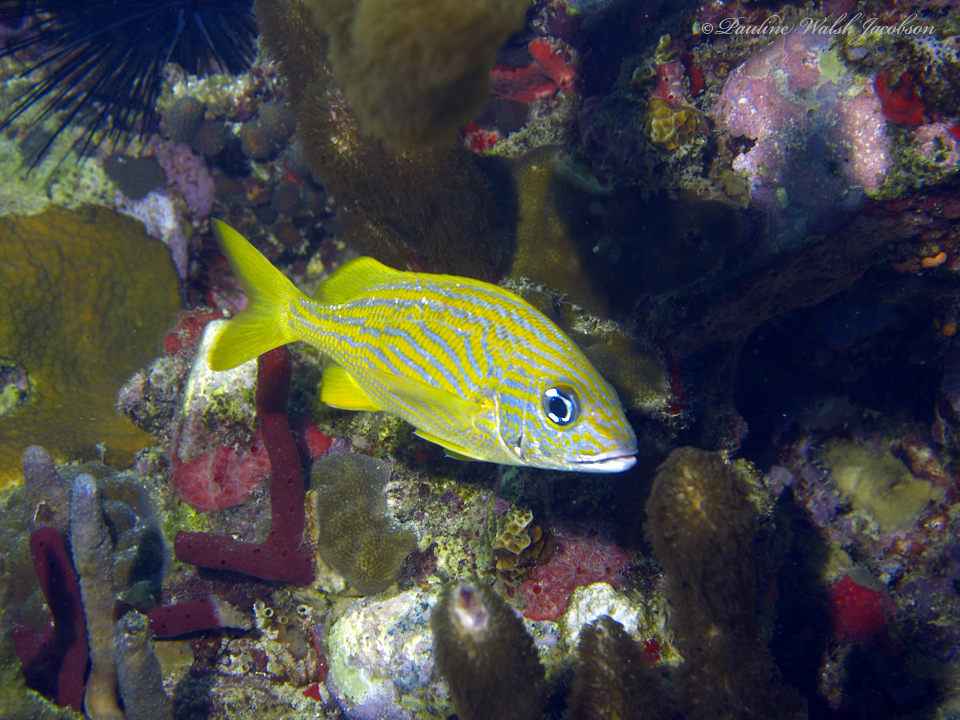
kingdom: Animalia
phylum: Chordata
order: Perciformes
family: Haemulidae
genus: Haemulon
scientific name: Haemulon flavolineatum
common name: French grunt
